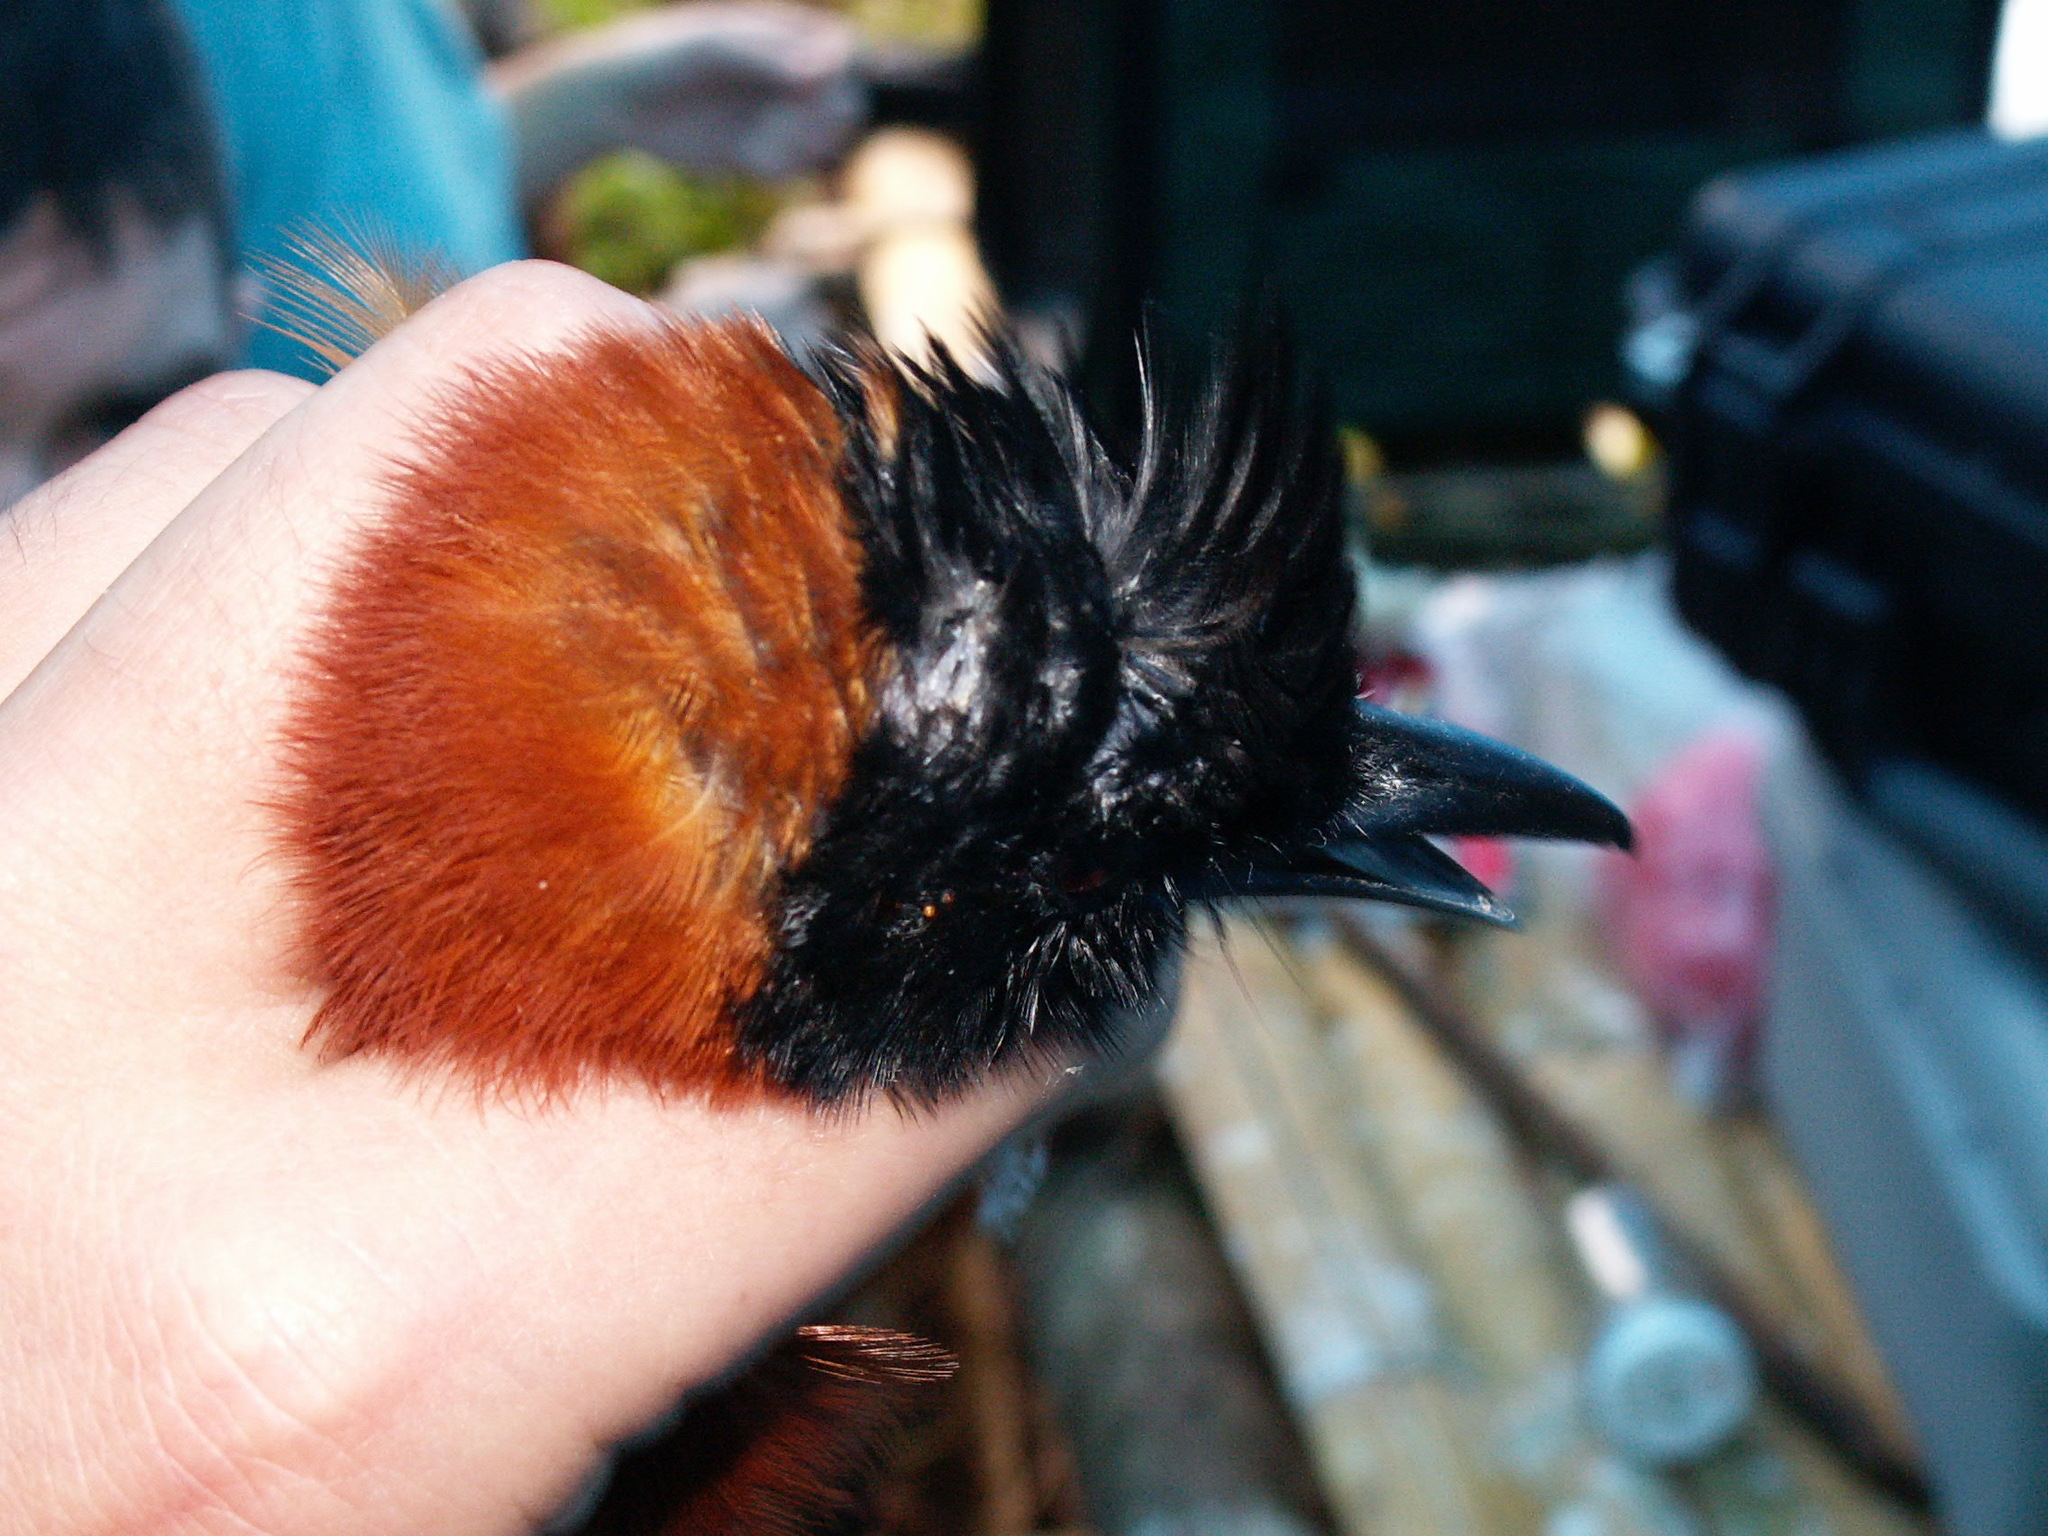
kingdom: Animalia
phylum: Chordata
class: Aves
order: Passeriformes
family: Oriolidae
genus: Pitohui
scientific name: Pitohui dichrous
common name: Hooded pitohui
